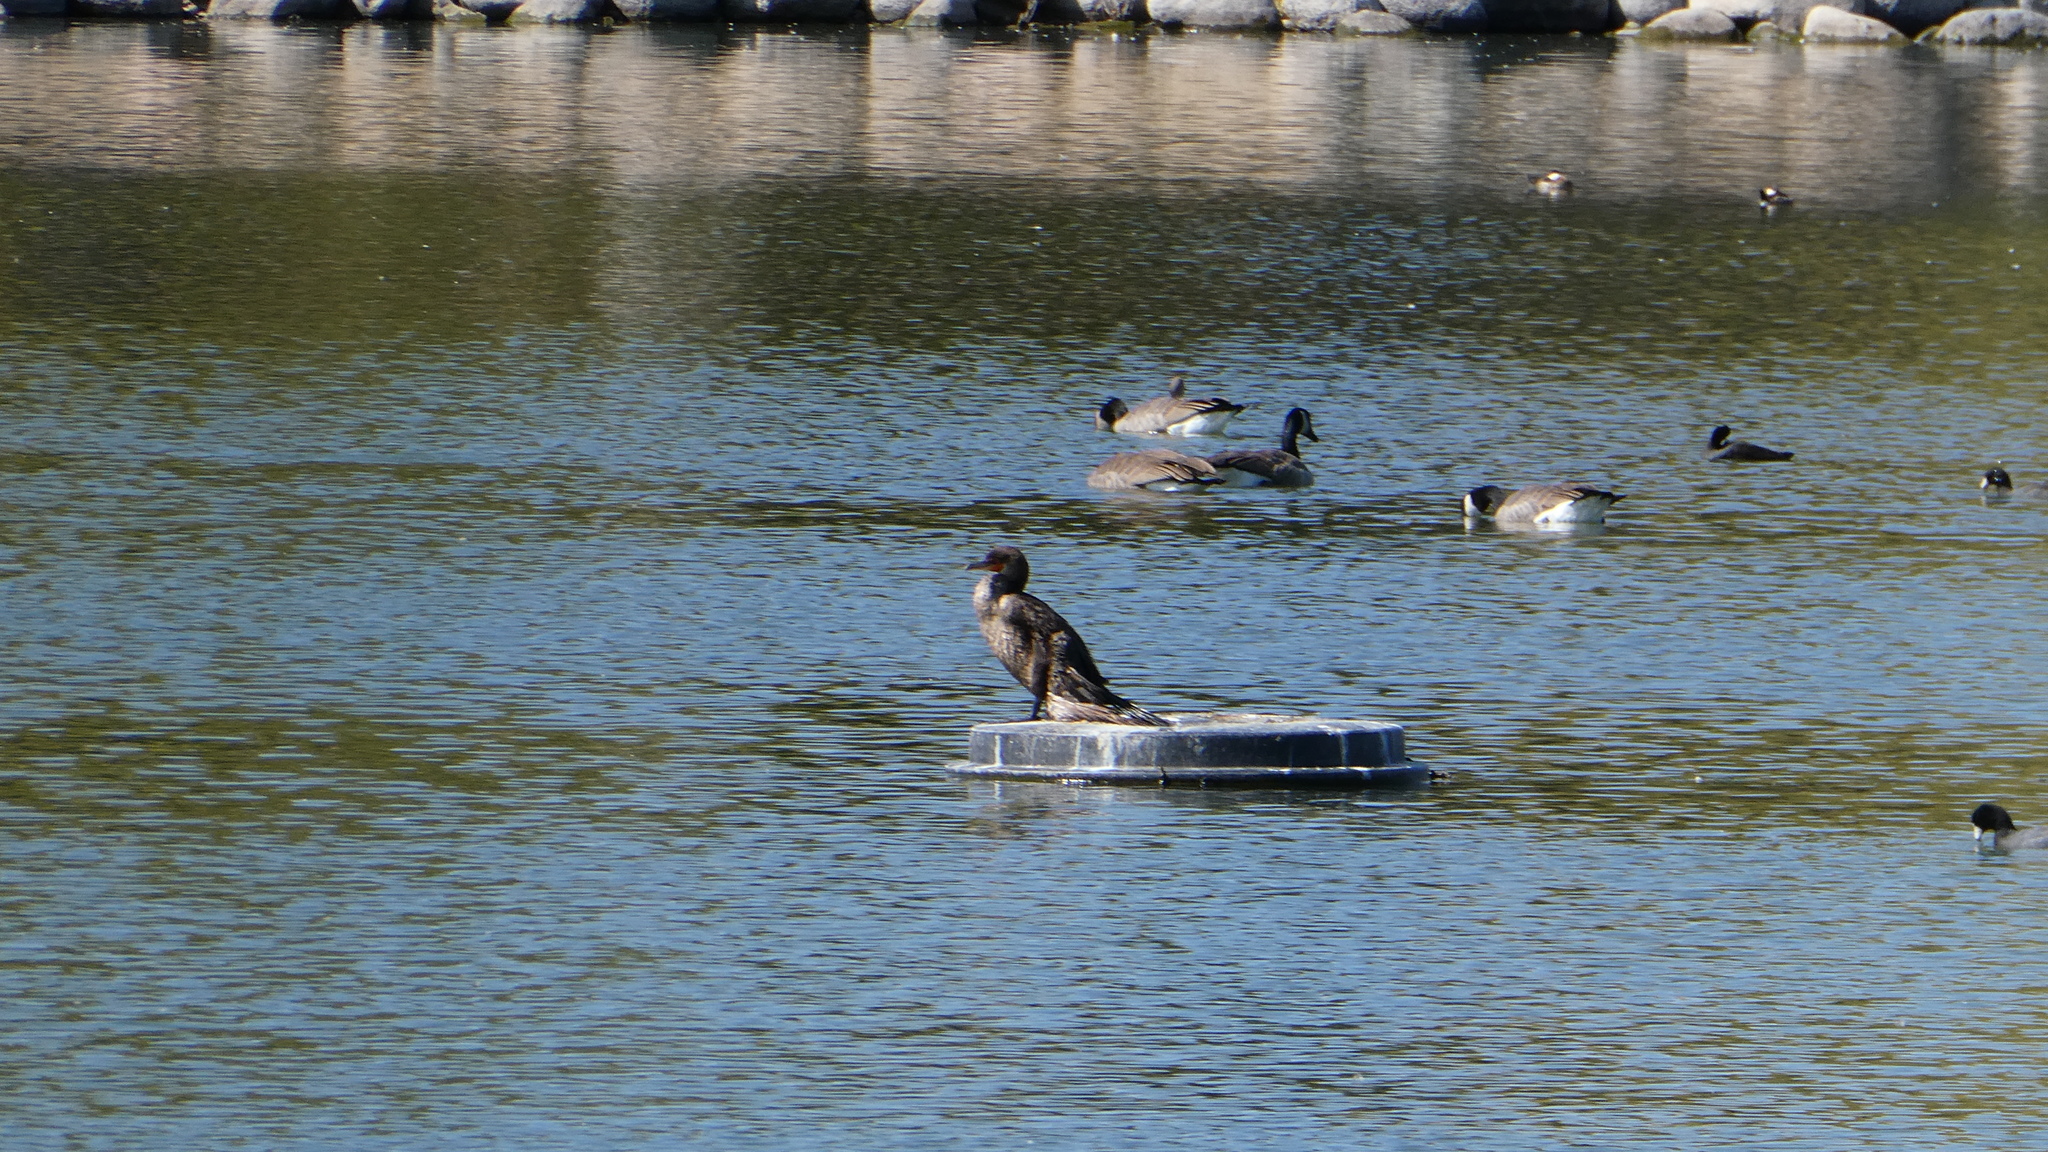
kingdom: Animalia
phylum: Chordata
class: Aves
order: Suliformes
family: Phalacrocoracidae
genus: Phalacrocorax
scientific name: Phalacrocorax auritus
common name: Double-crested cormorant
